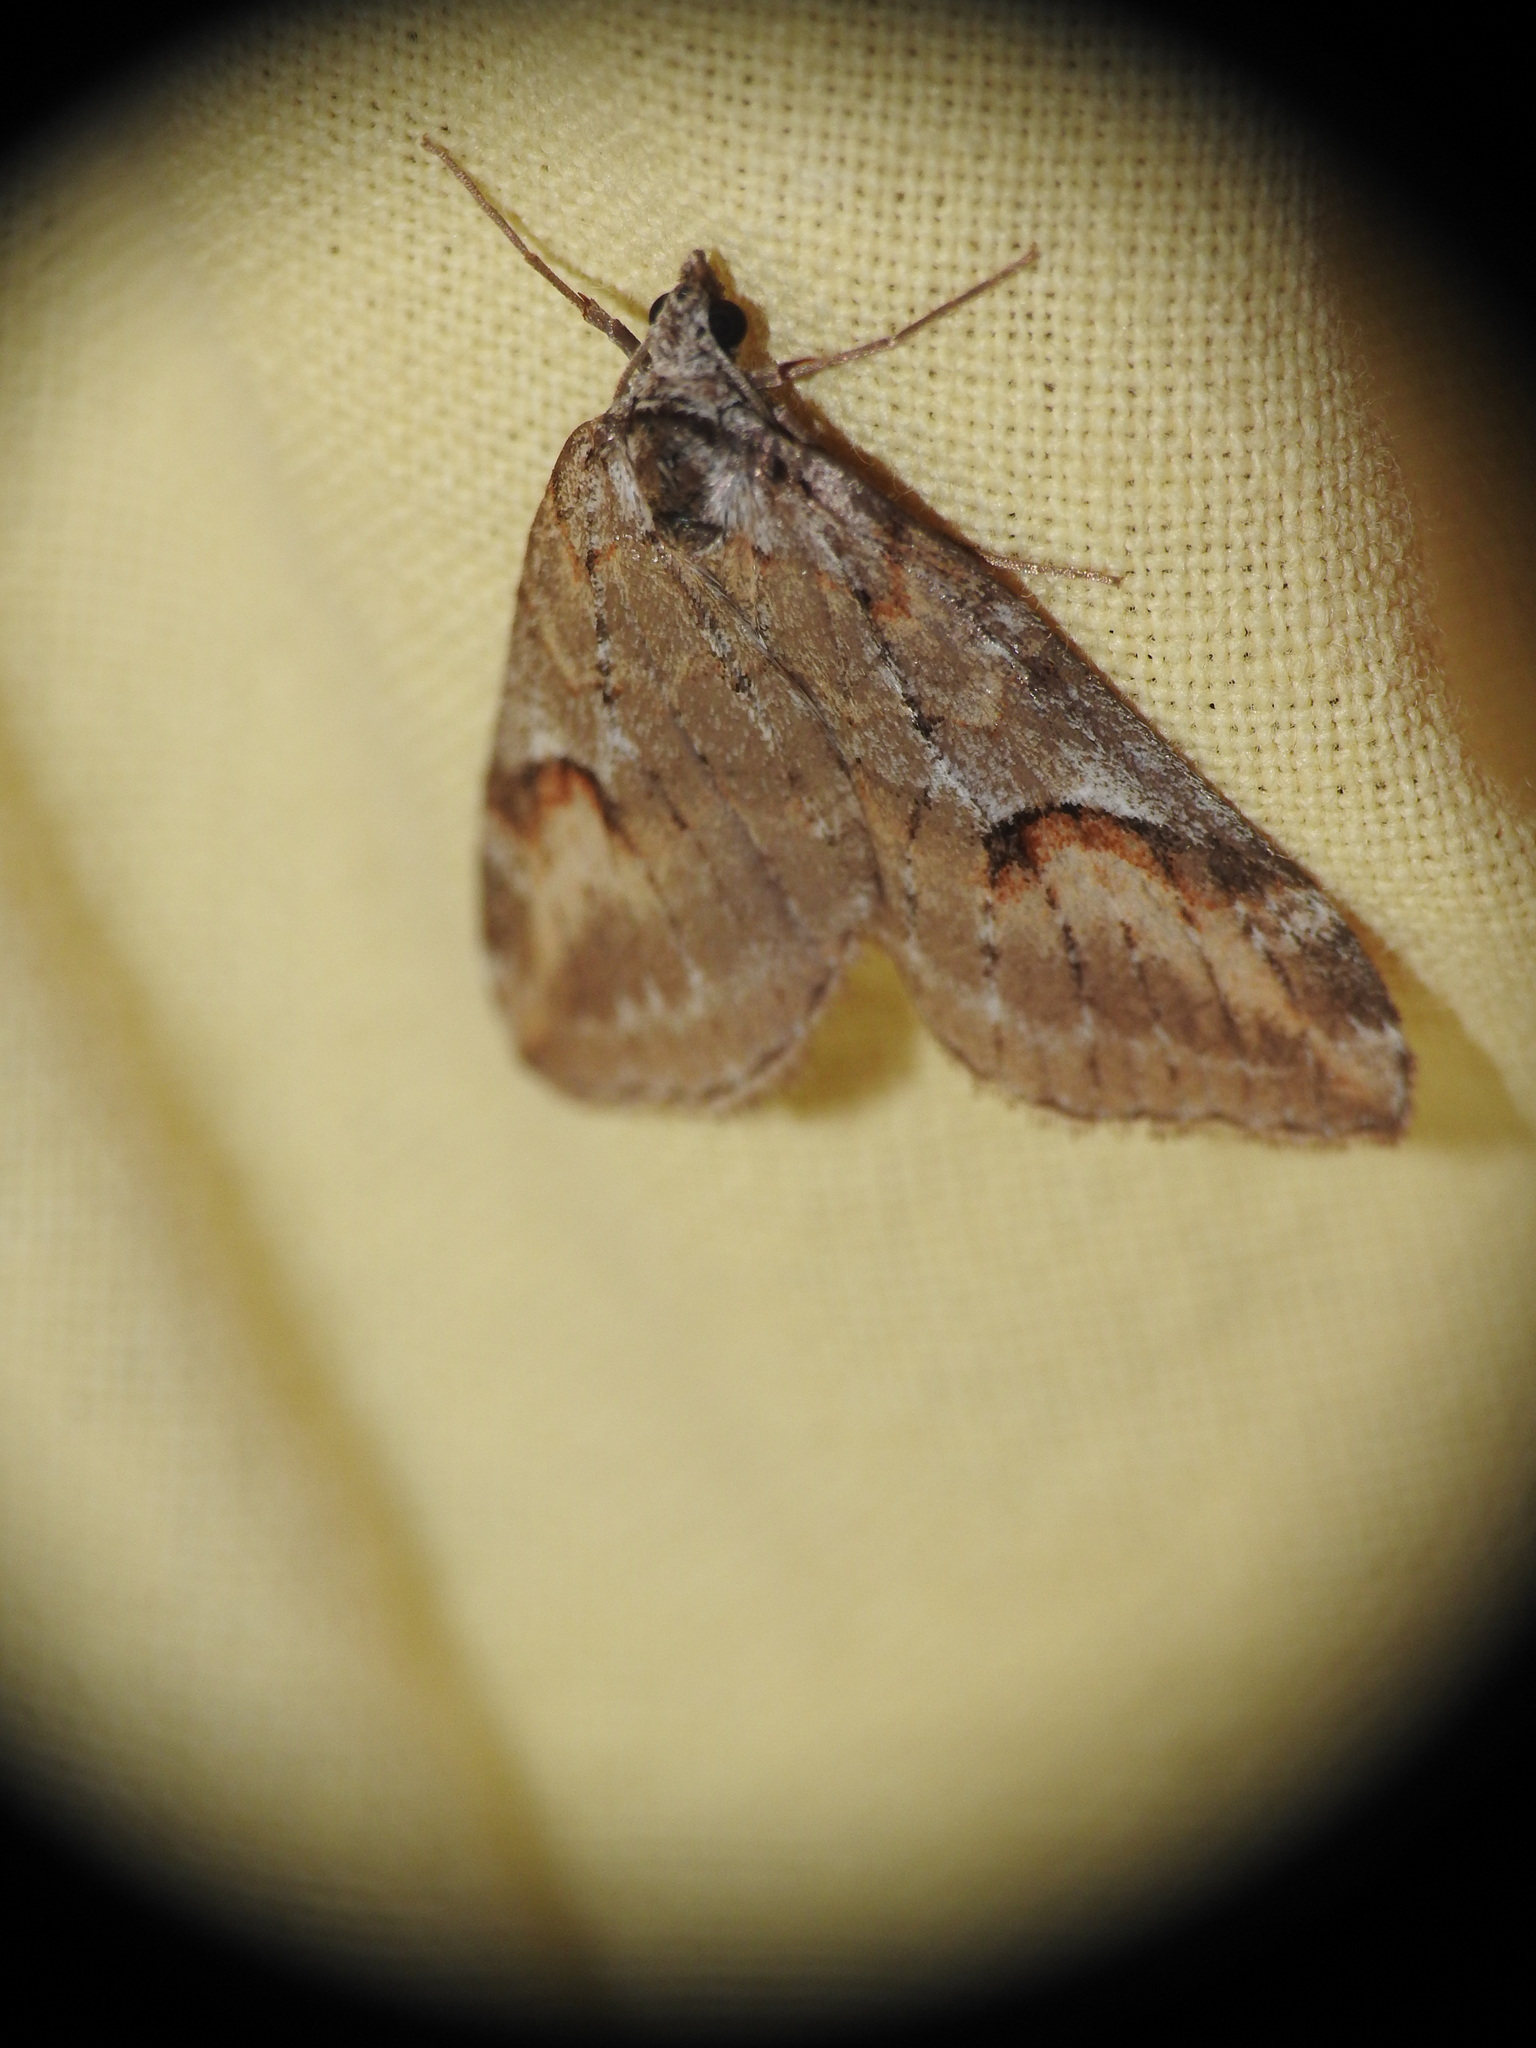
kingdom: Animalia
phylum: Arthropoda
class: Insecta
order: Lepidoptera
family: Geometridae
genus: Chesias
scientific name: Chesias rufata
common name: Broom-tip
